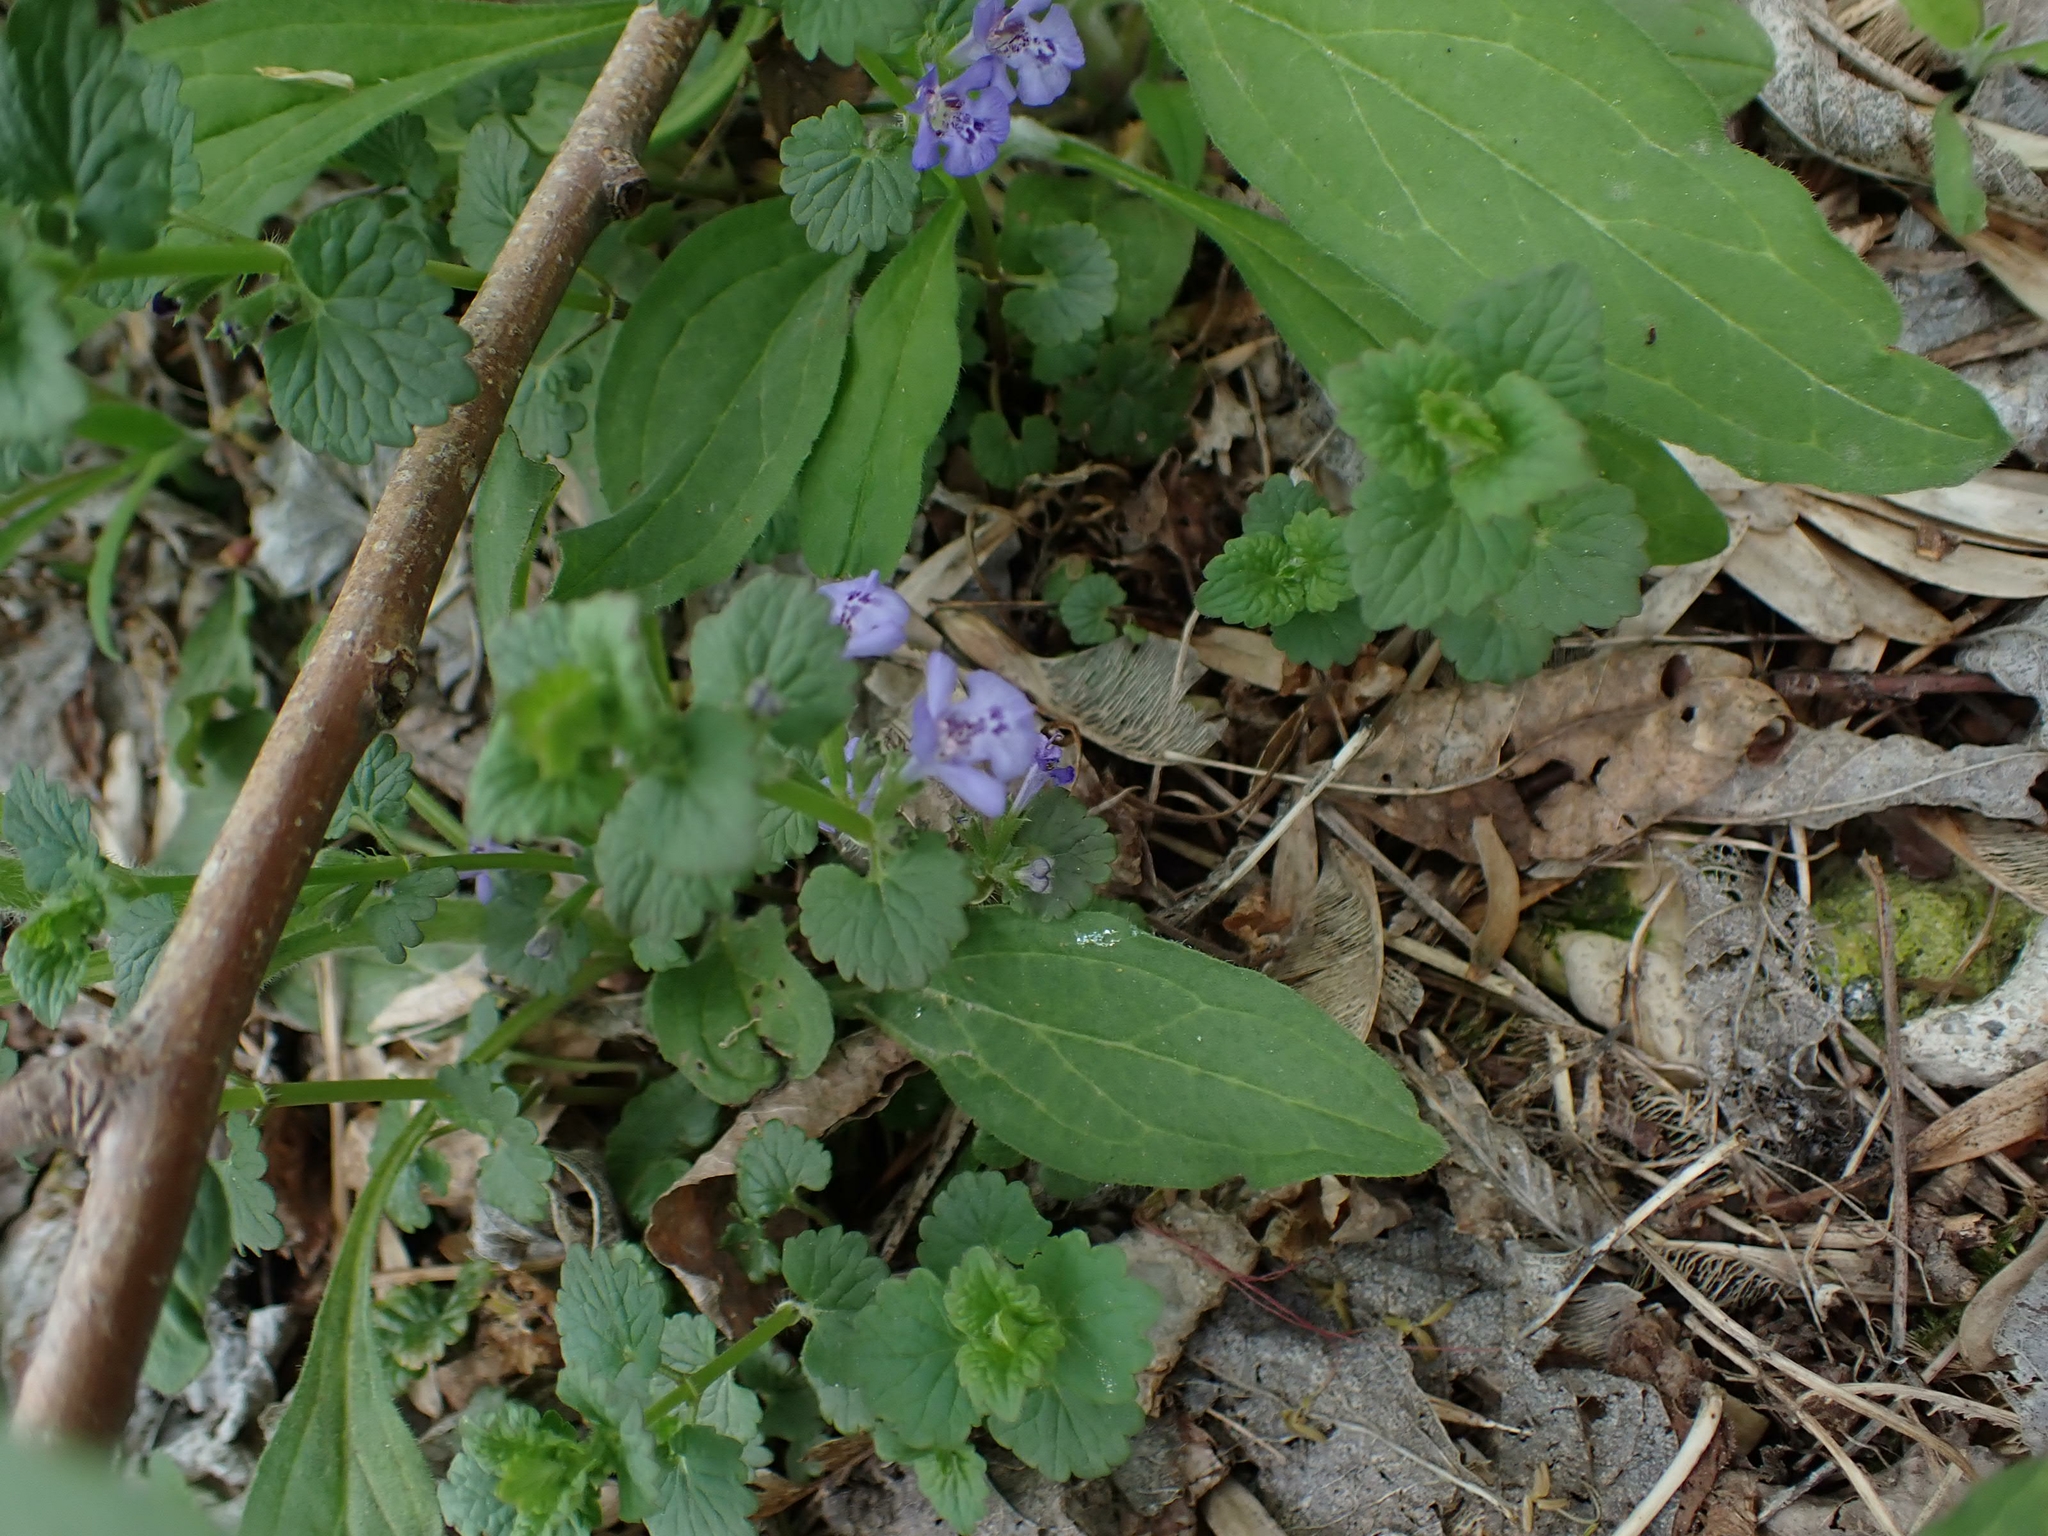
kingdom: Plantae
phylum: Tracheophyta
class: Magnoliopsida
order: Lamiales
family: Lamiaceae
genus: Glechoma
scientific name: Glechoma hederacea
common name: Ground ivy
